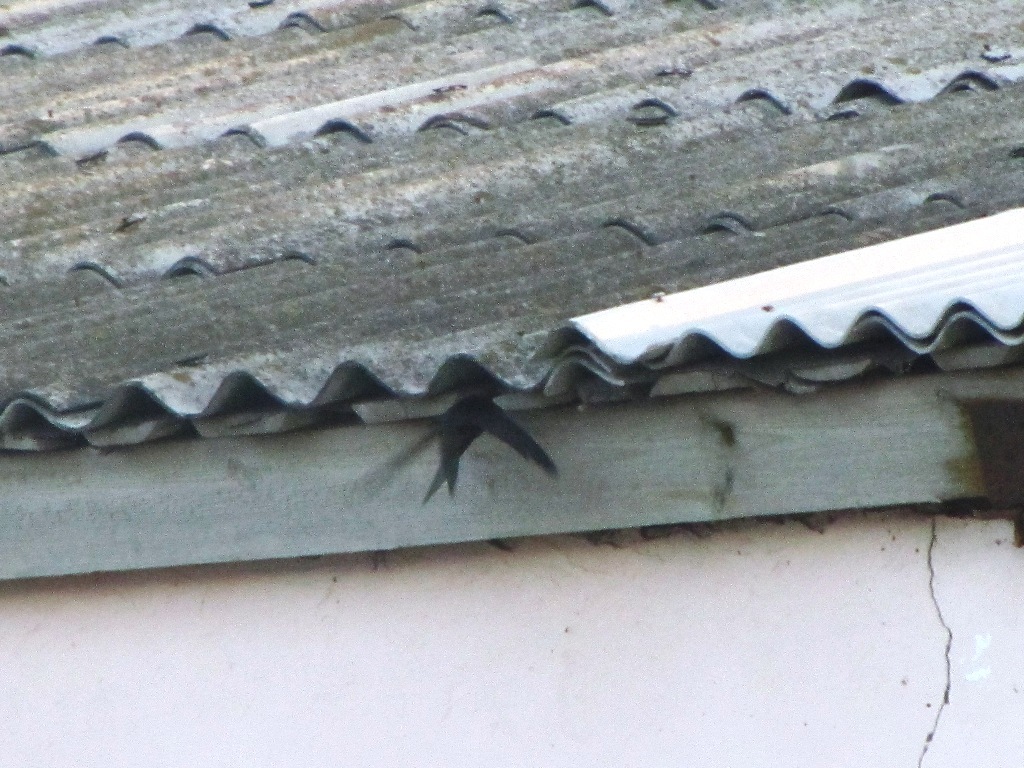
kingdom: Animalia
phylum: Chordata
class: Aves
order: Apodiformes
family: Apodidae
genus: Apus
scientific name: Apus apus
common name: Common swift
